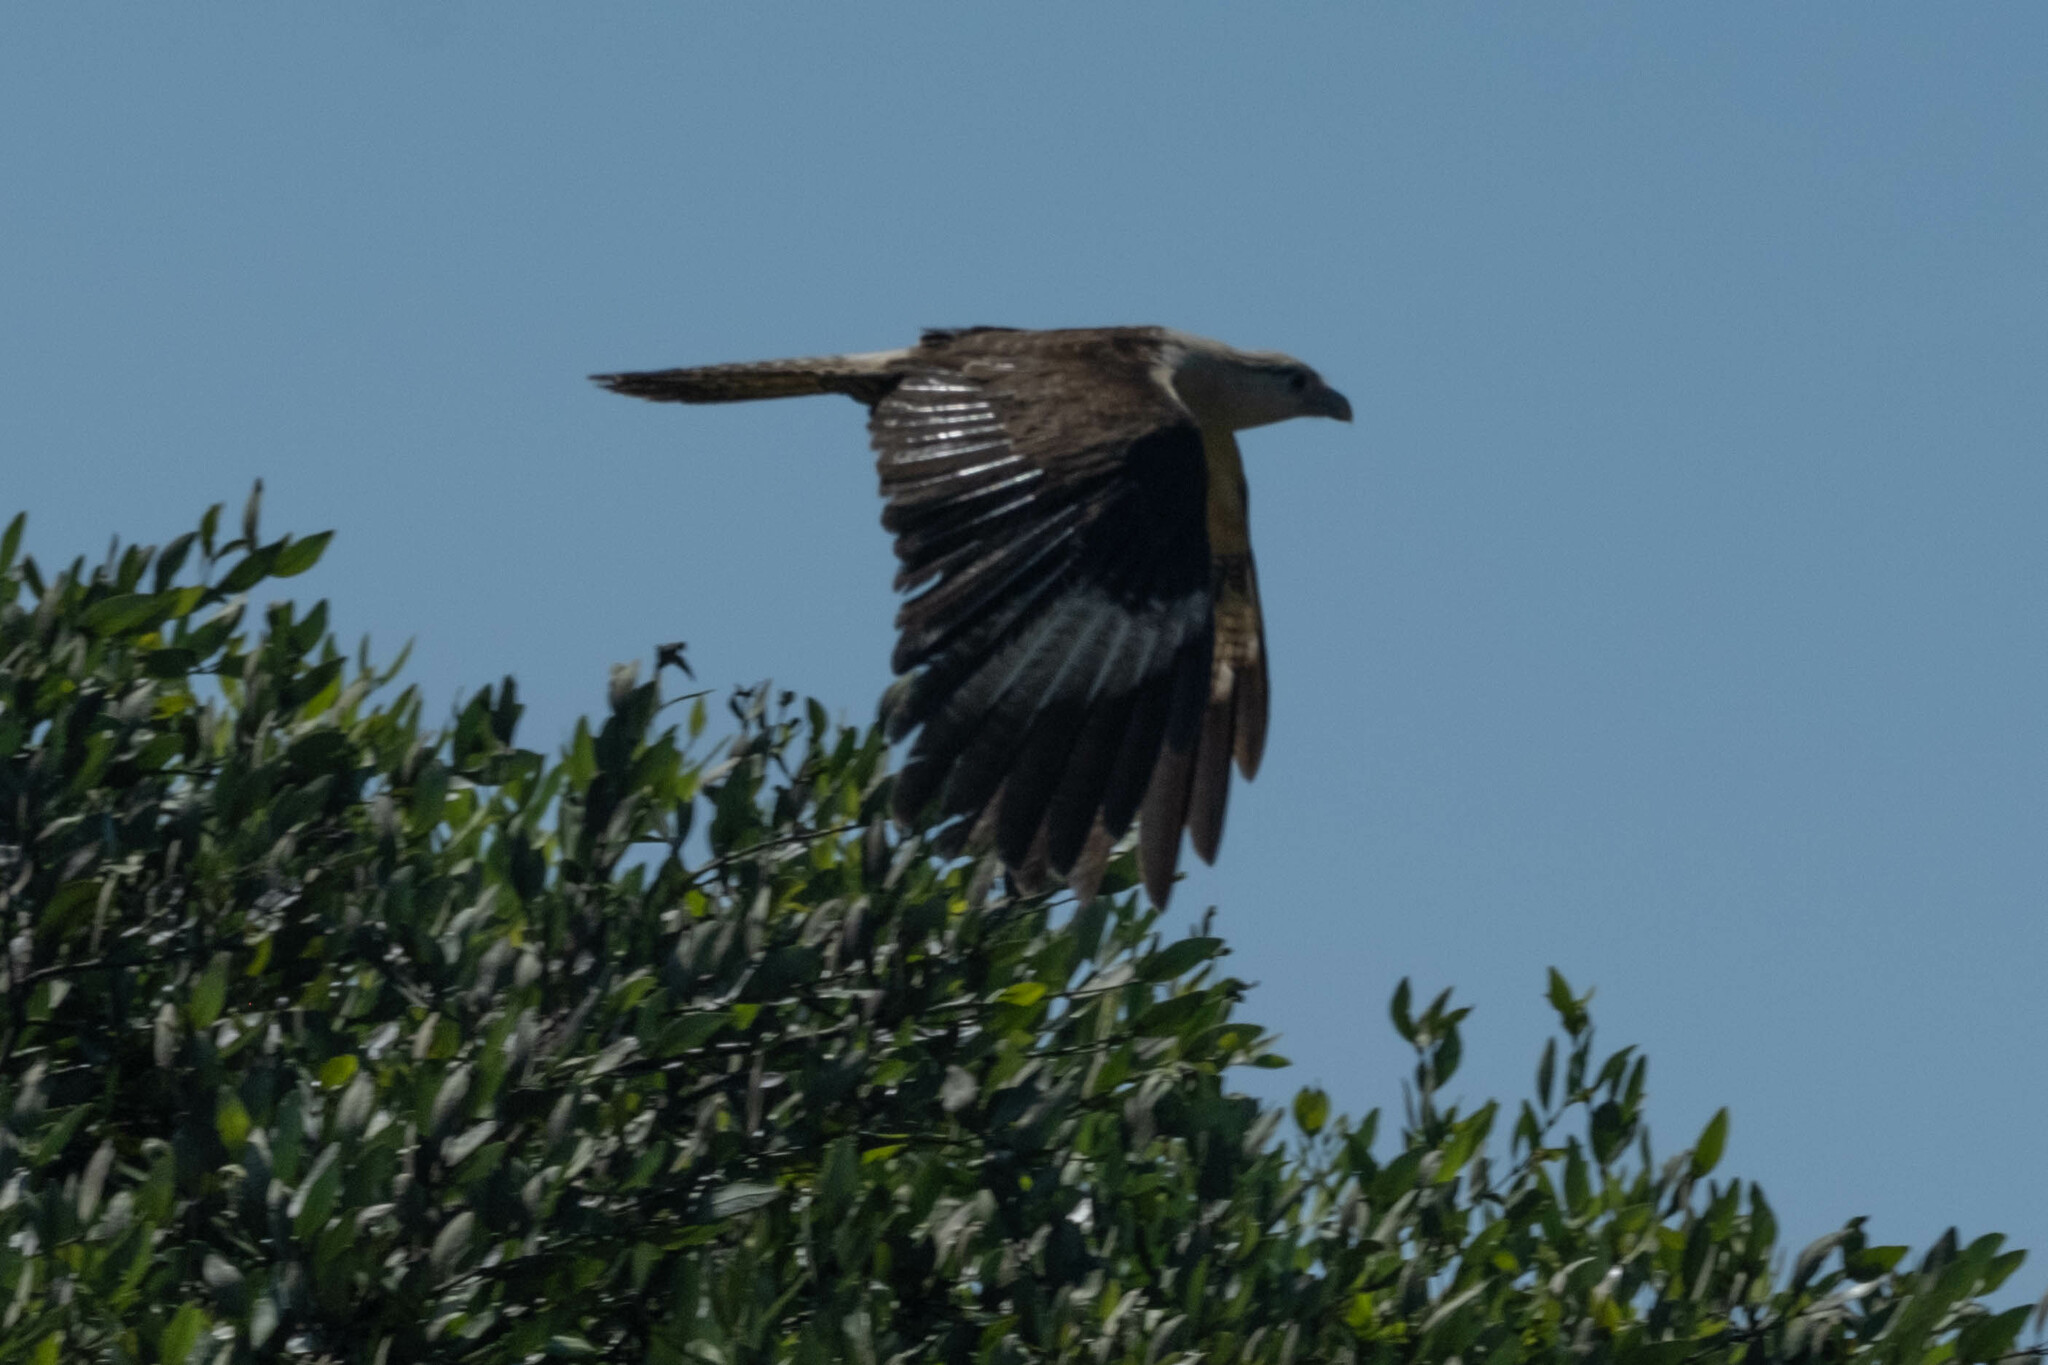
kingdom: Animalia
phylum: Chordata
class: Aves
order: Falconiformes
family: Falconidae
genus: Daptrius
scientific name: Daptrius
